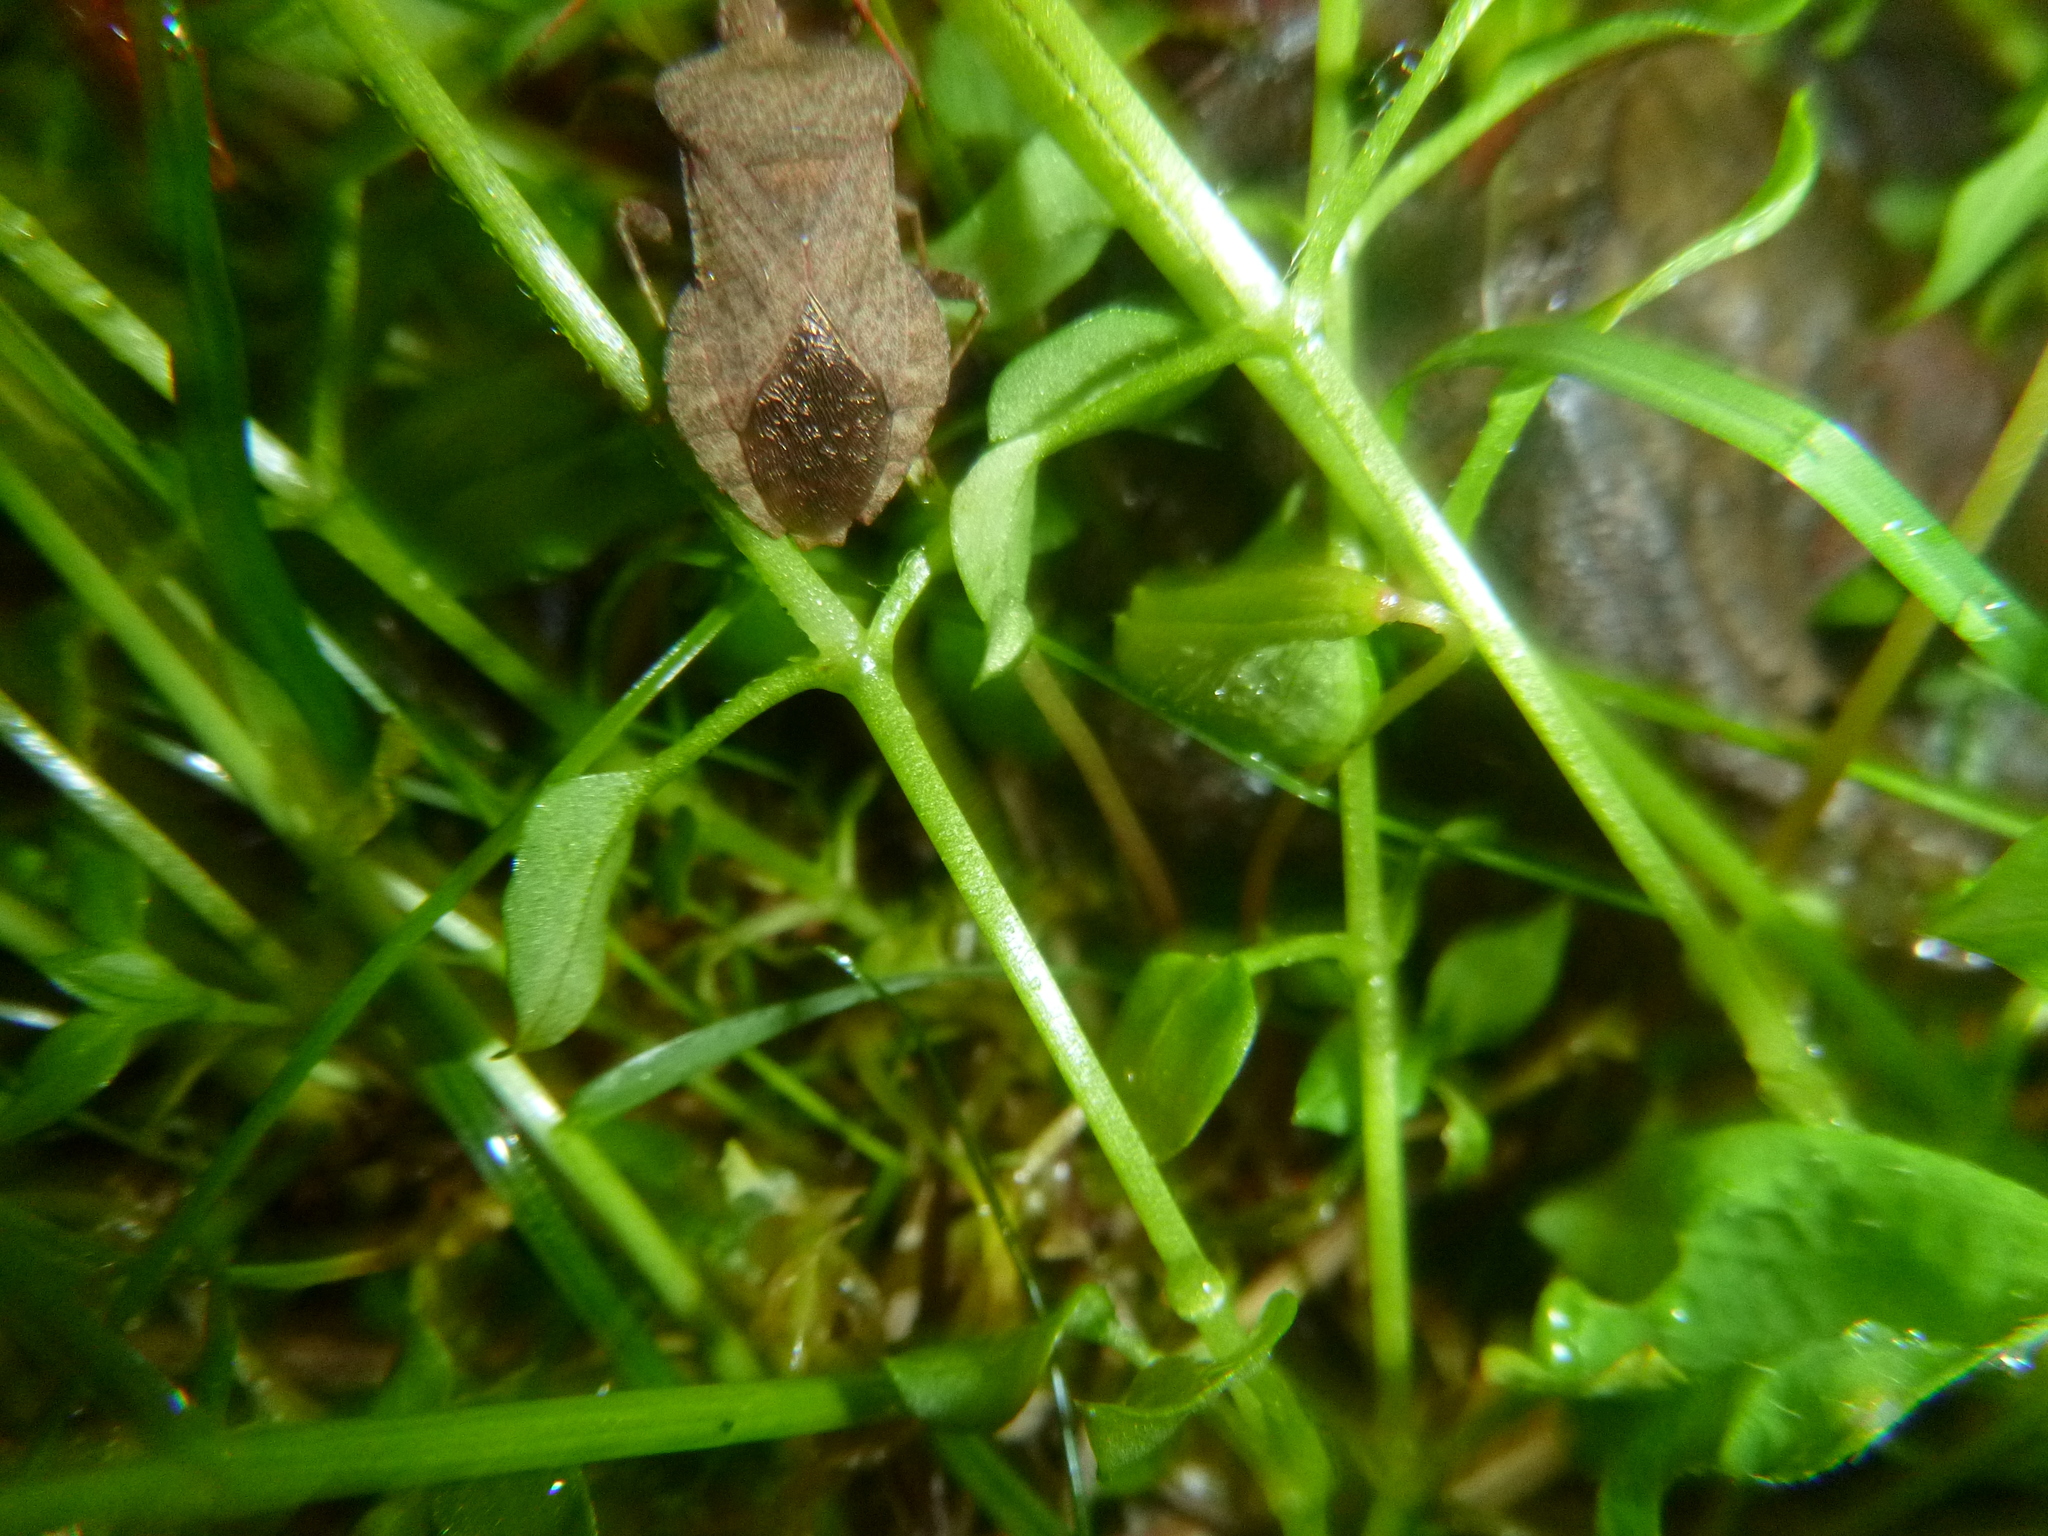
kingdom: Animalia
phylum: Arthropoda
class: Insecta
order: Hemiptera
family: Coreidae
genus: Coreus
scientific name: Coreus marginatus
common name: Dock bug
